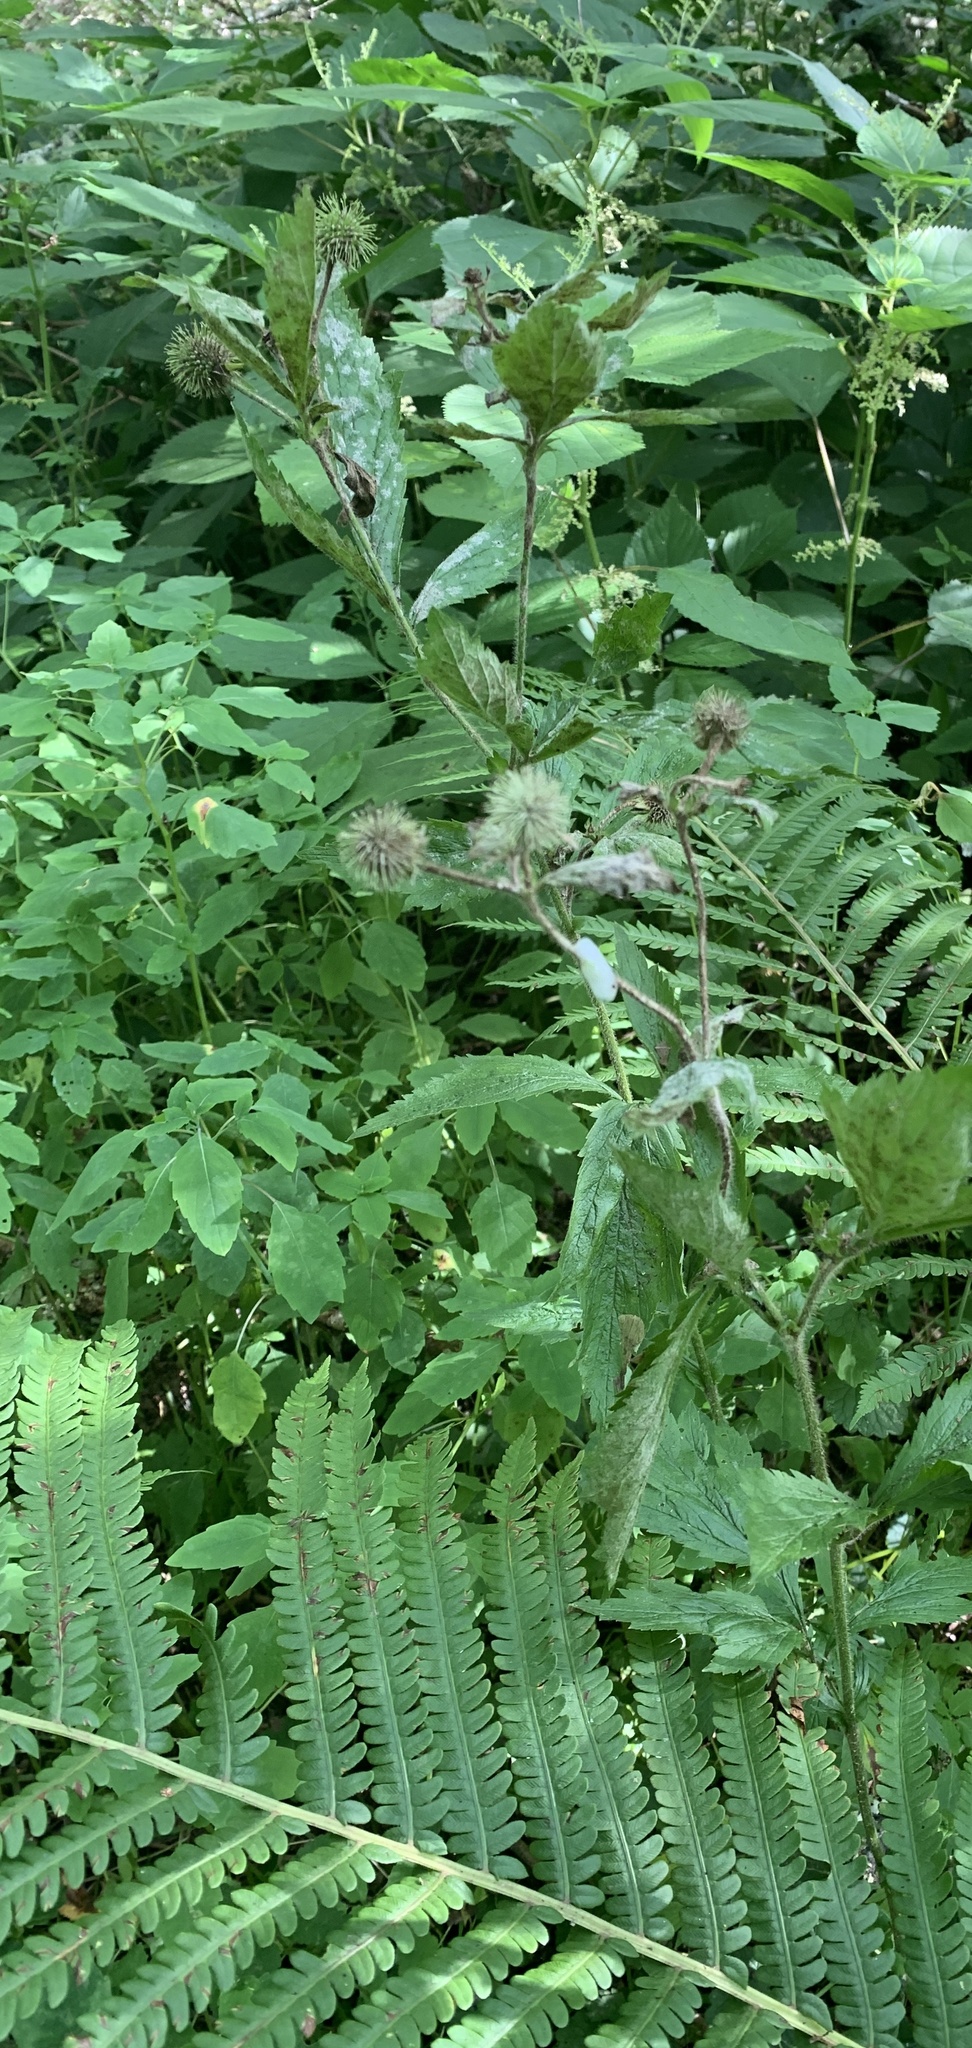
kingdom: Plantae
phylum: Tracheophyta
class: Magnoliopsida
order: Rosales
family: Rosaceae
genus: Geum
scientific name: Geum laciniatum
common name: Rough avens
